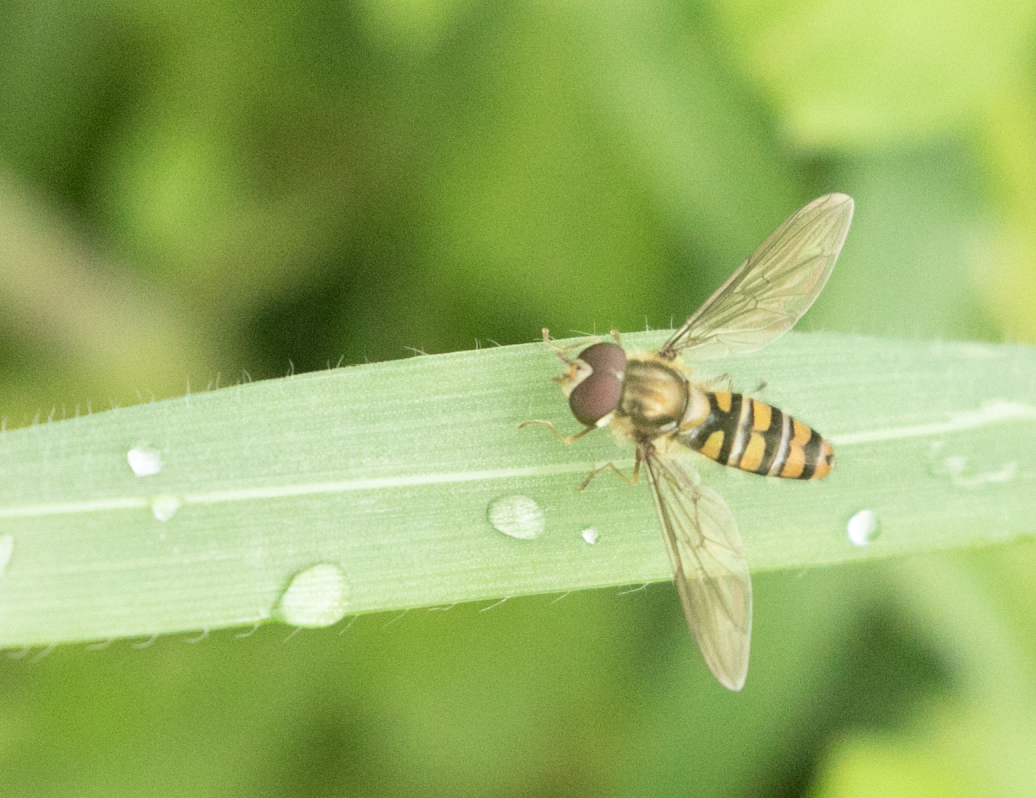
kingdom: Animalia
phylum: Arthropoda
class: Insecta
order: Diptera
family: Syrphidae
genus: Episyrphus
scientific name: Episyrphus balteatus
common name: Marmalade hoverfly
